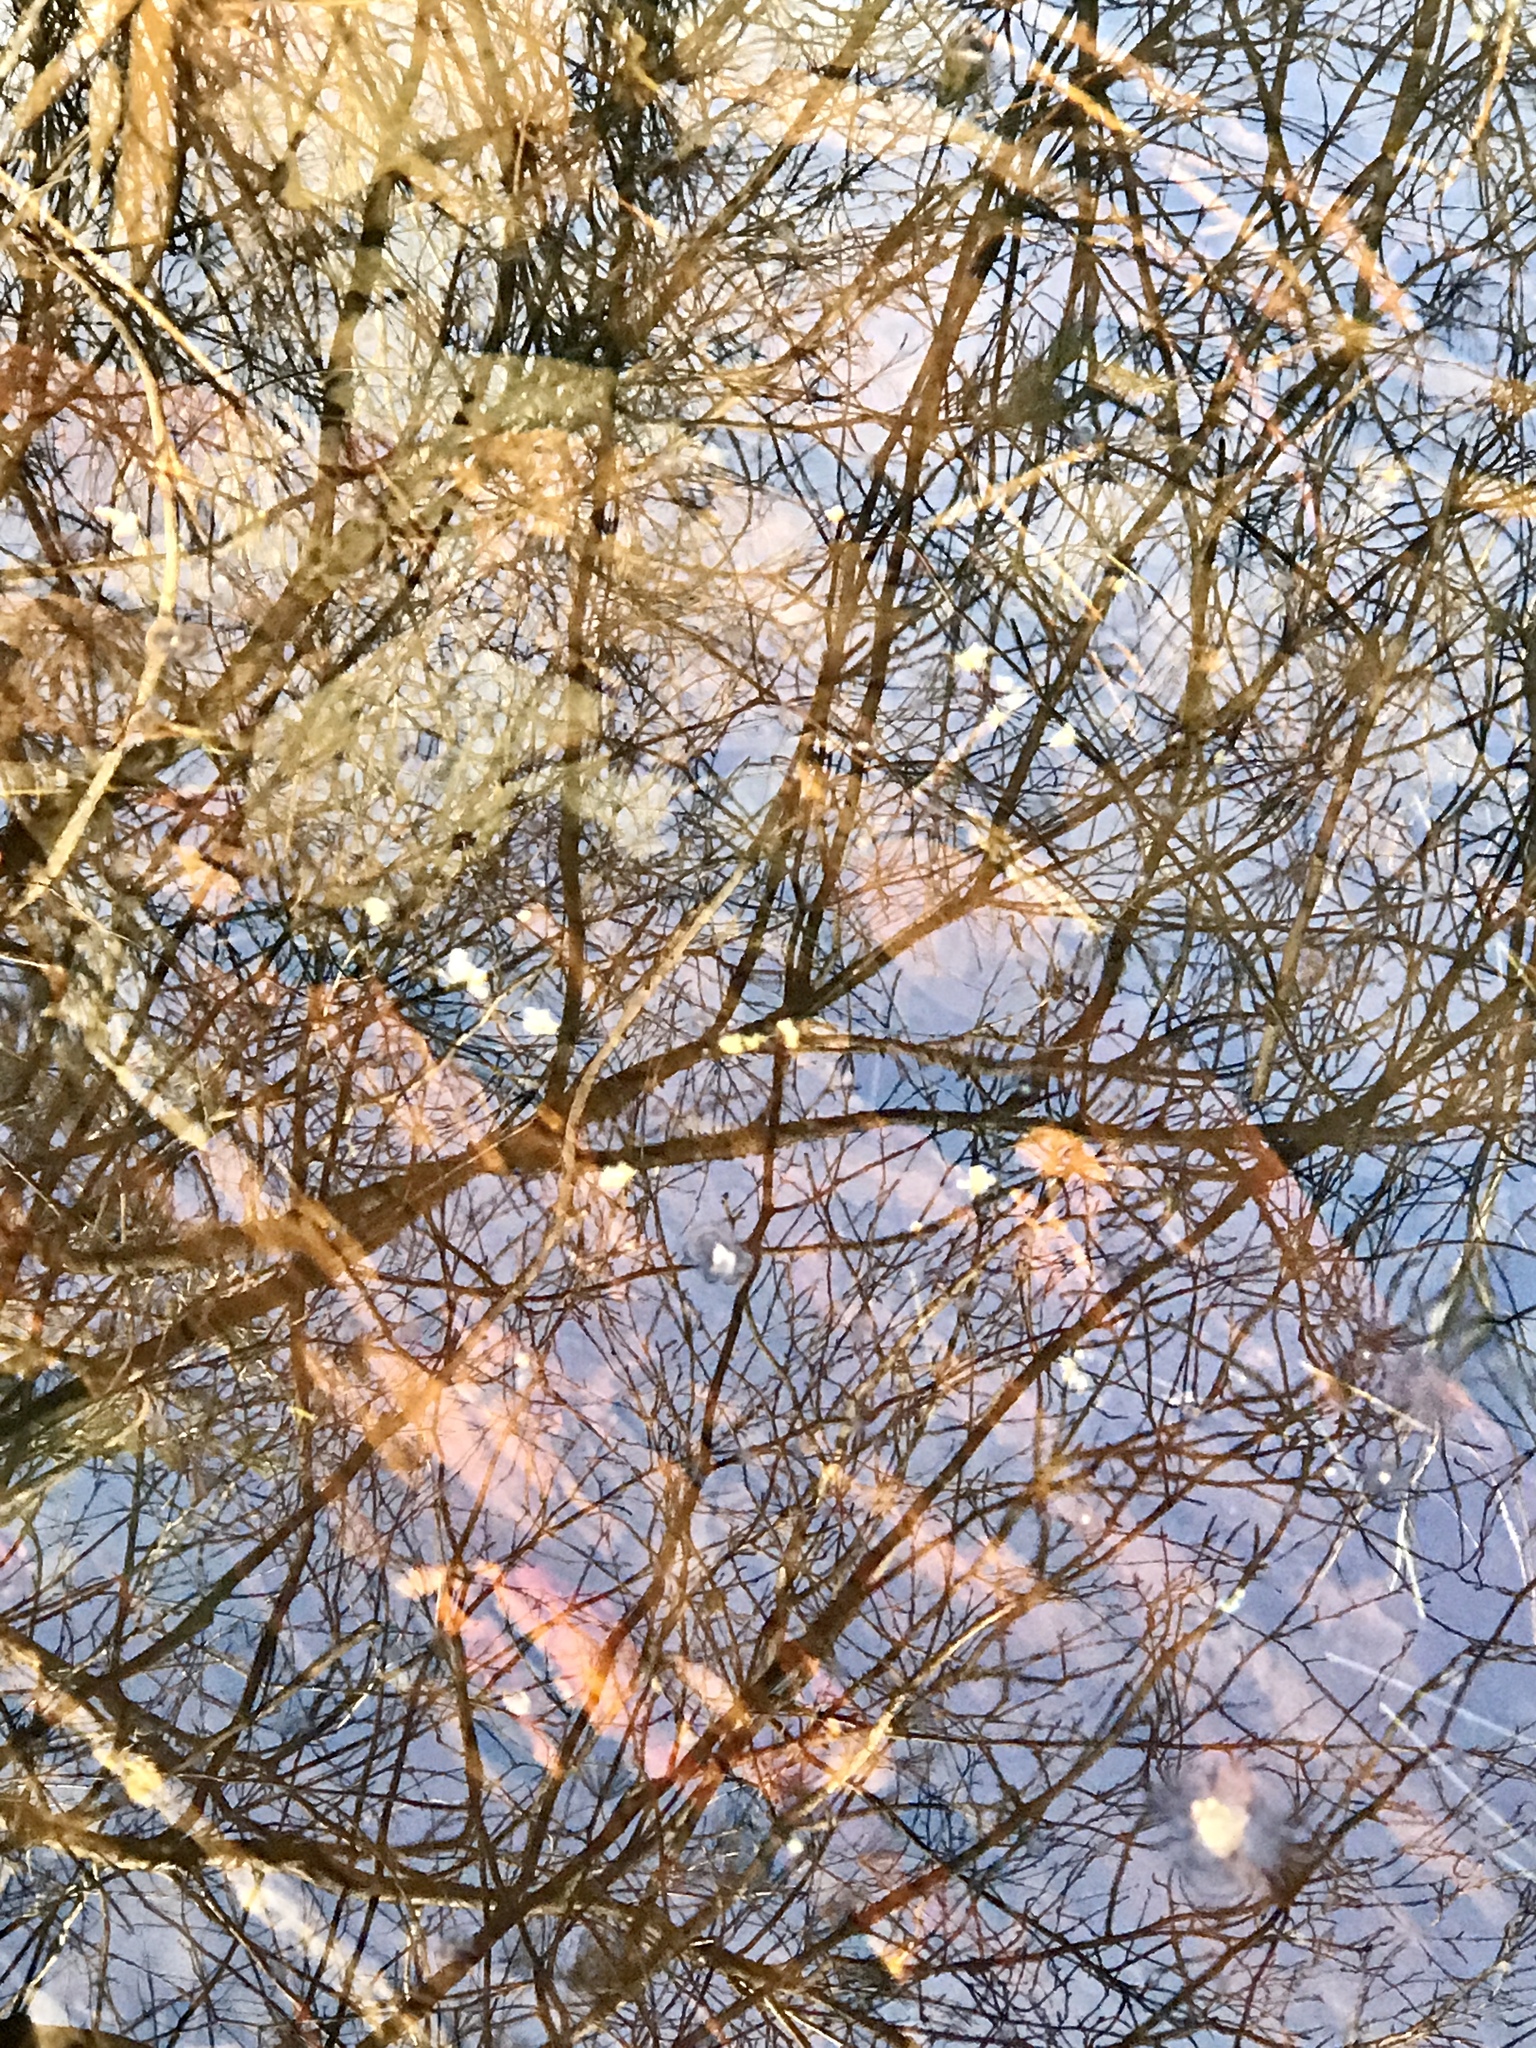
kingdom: Animalia
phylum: Chordata
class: Amphibia
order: Caudata
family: Ambystomatidae
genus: Ambystoma
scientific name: Ambystoma unisexual
